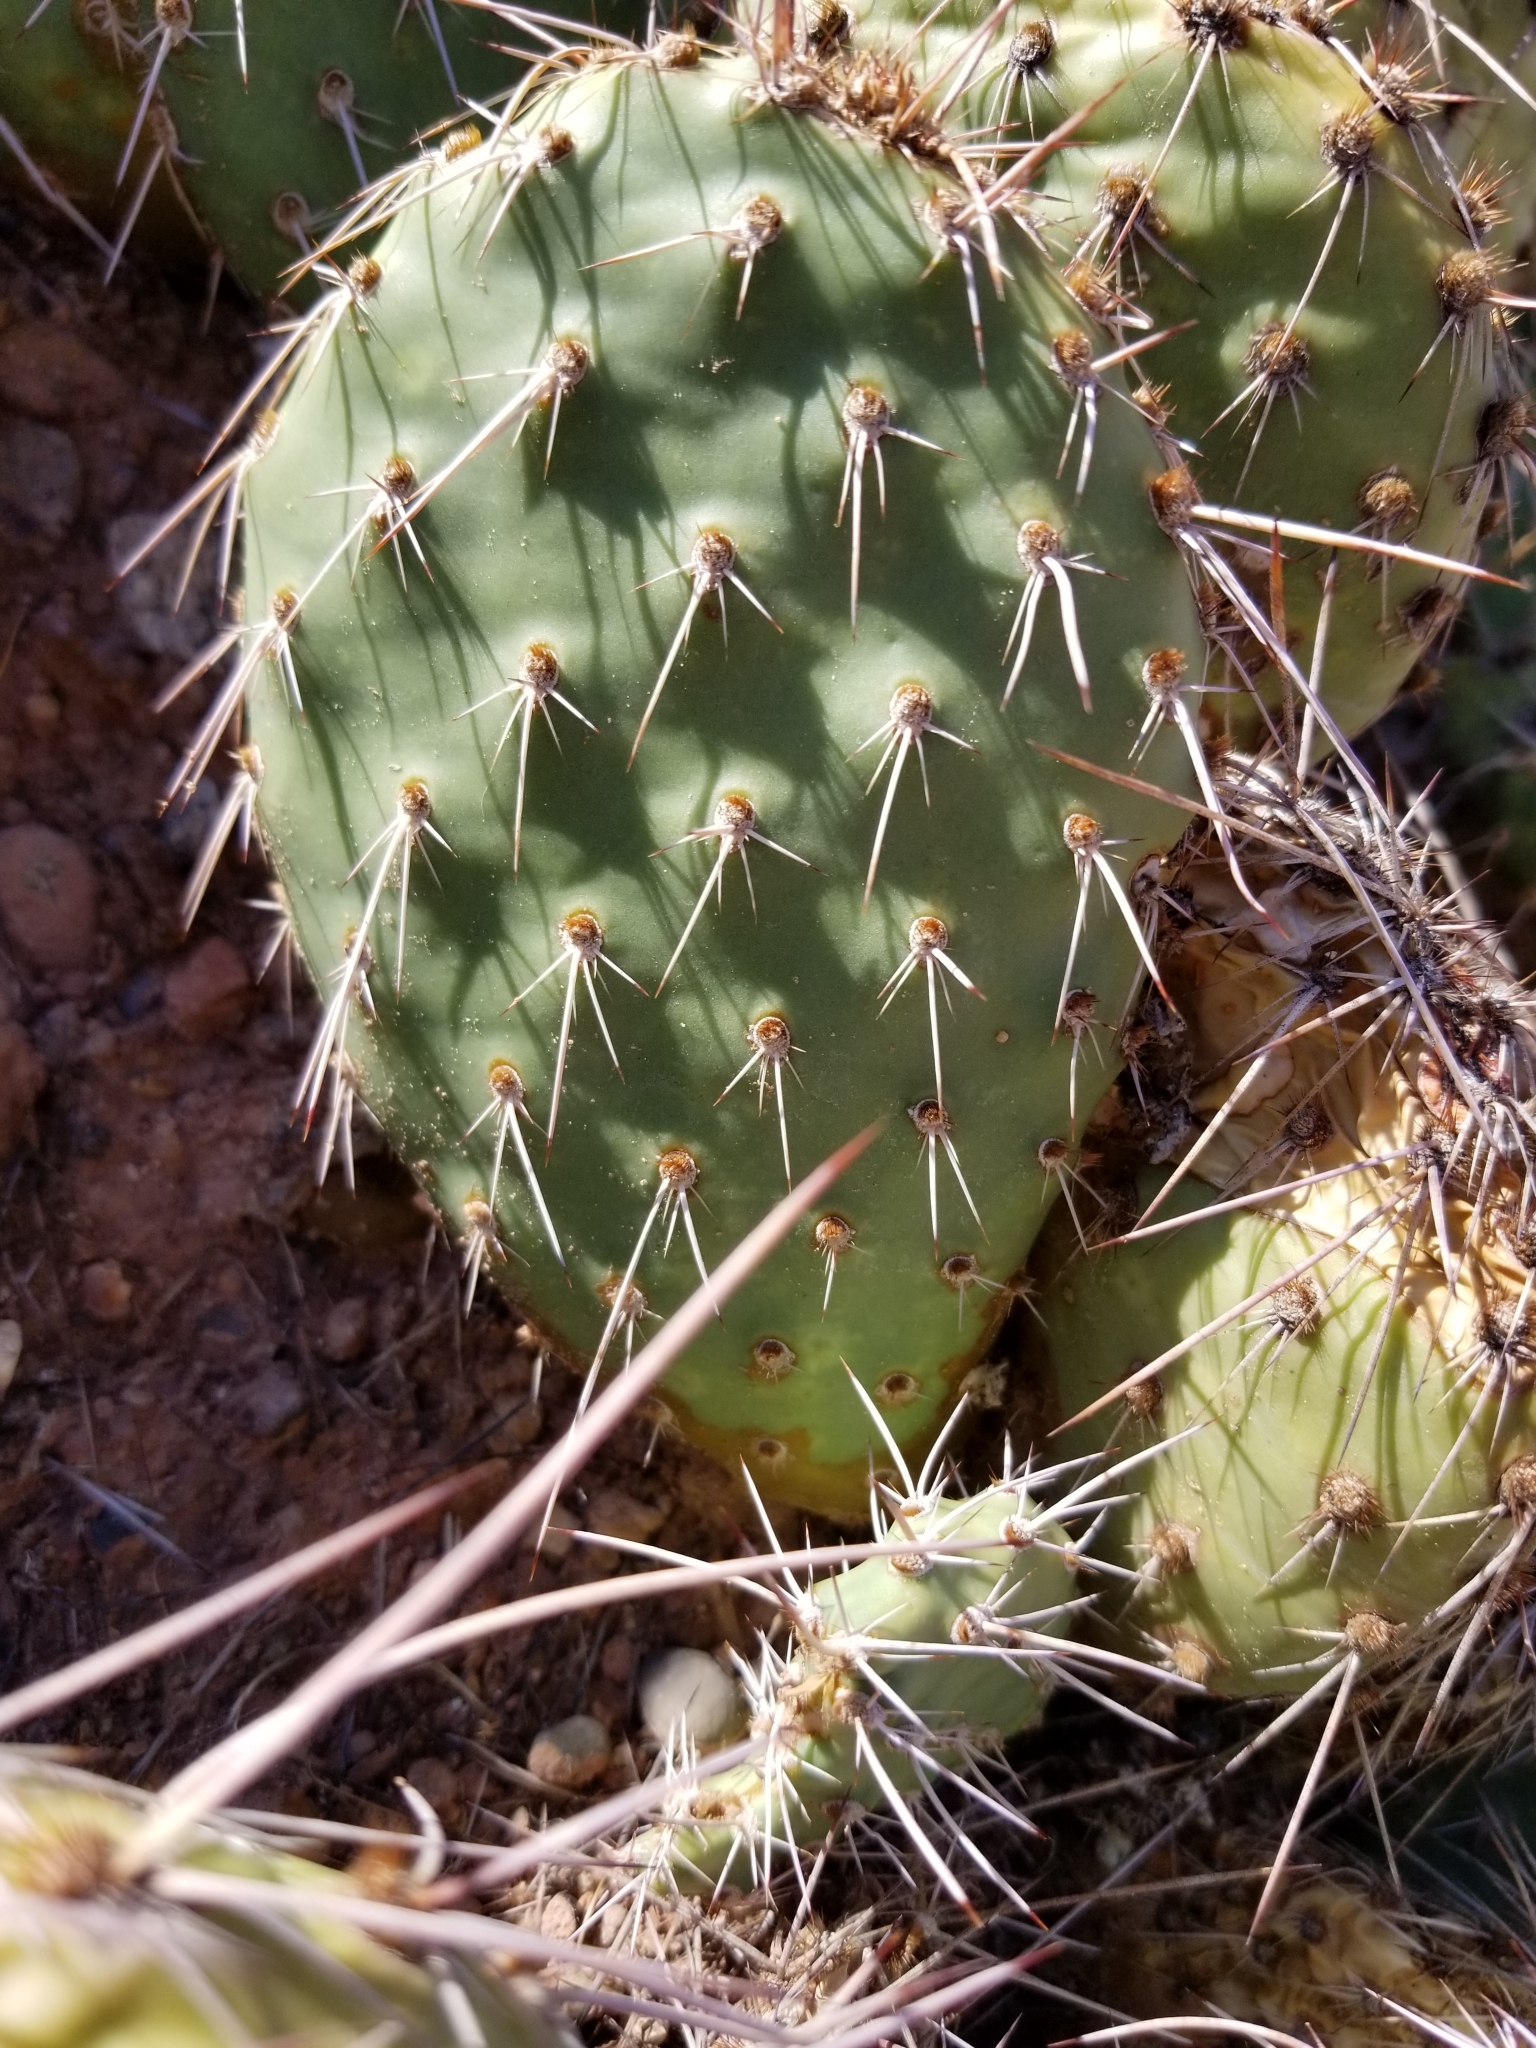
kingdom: Plantae
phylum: Tracheophyta
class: Magnoliopsida
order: Caryophyllales
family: Cactaceae
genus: Opuntia
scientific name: Opuntia polyacantha
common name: Plains prickly-pear
